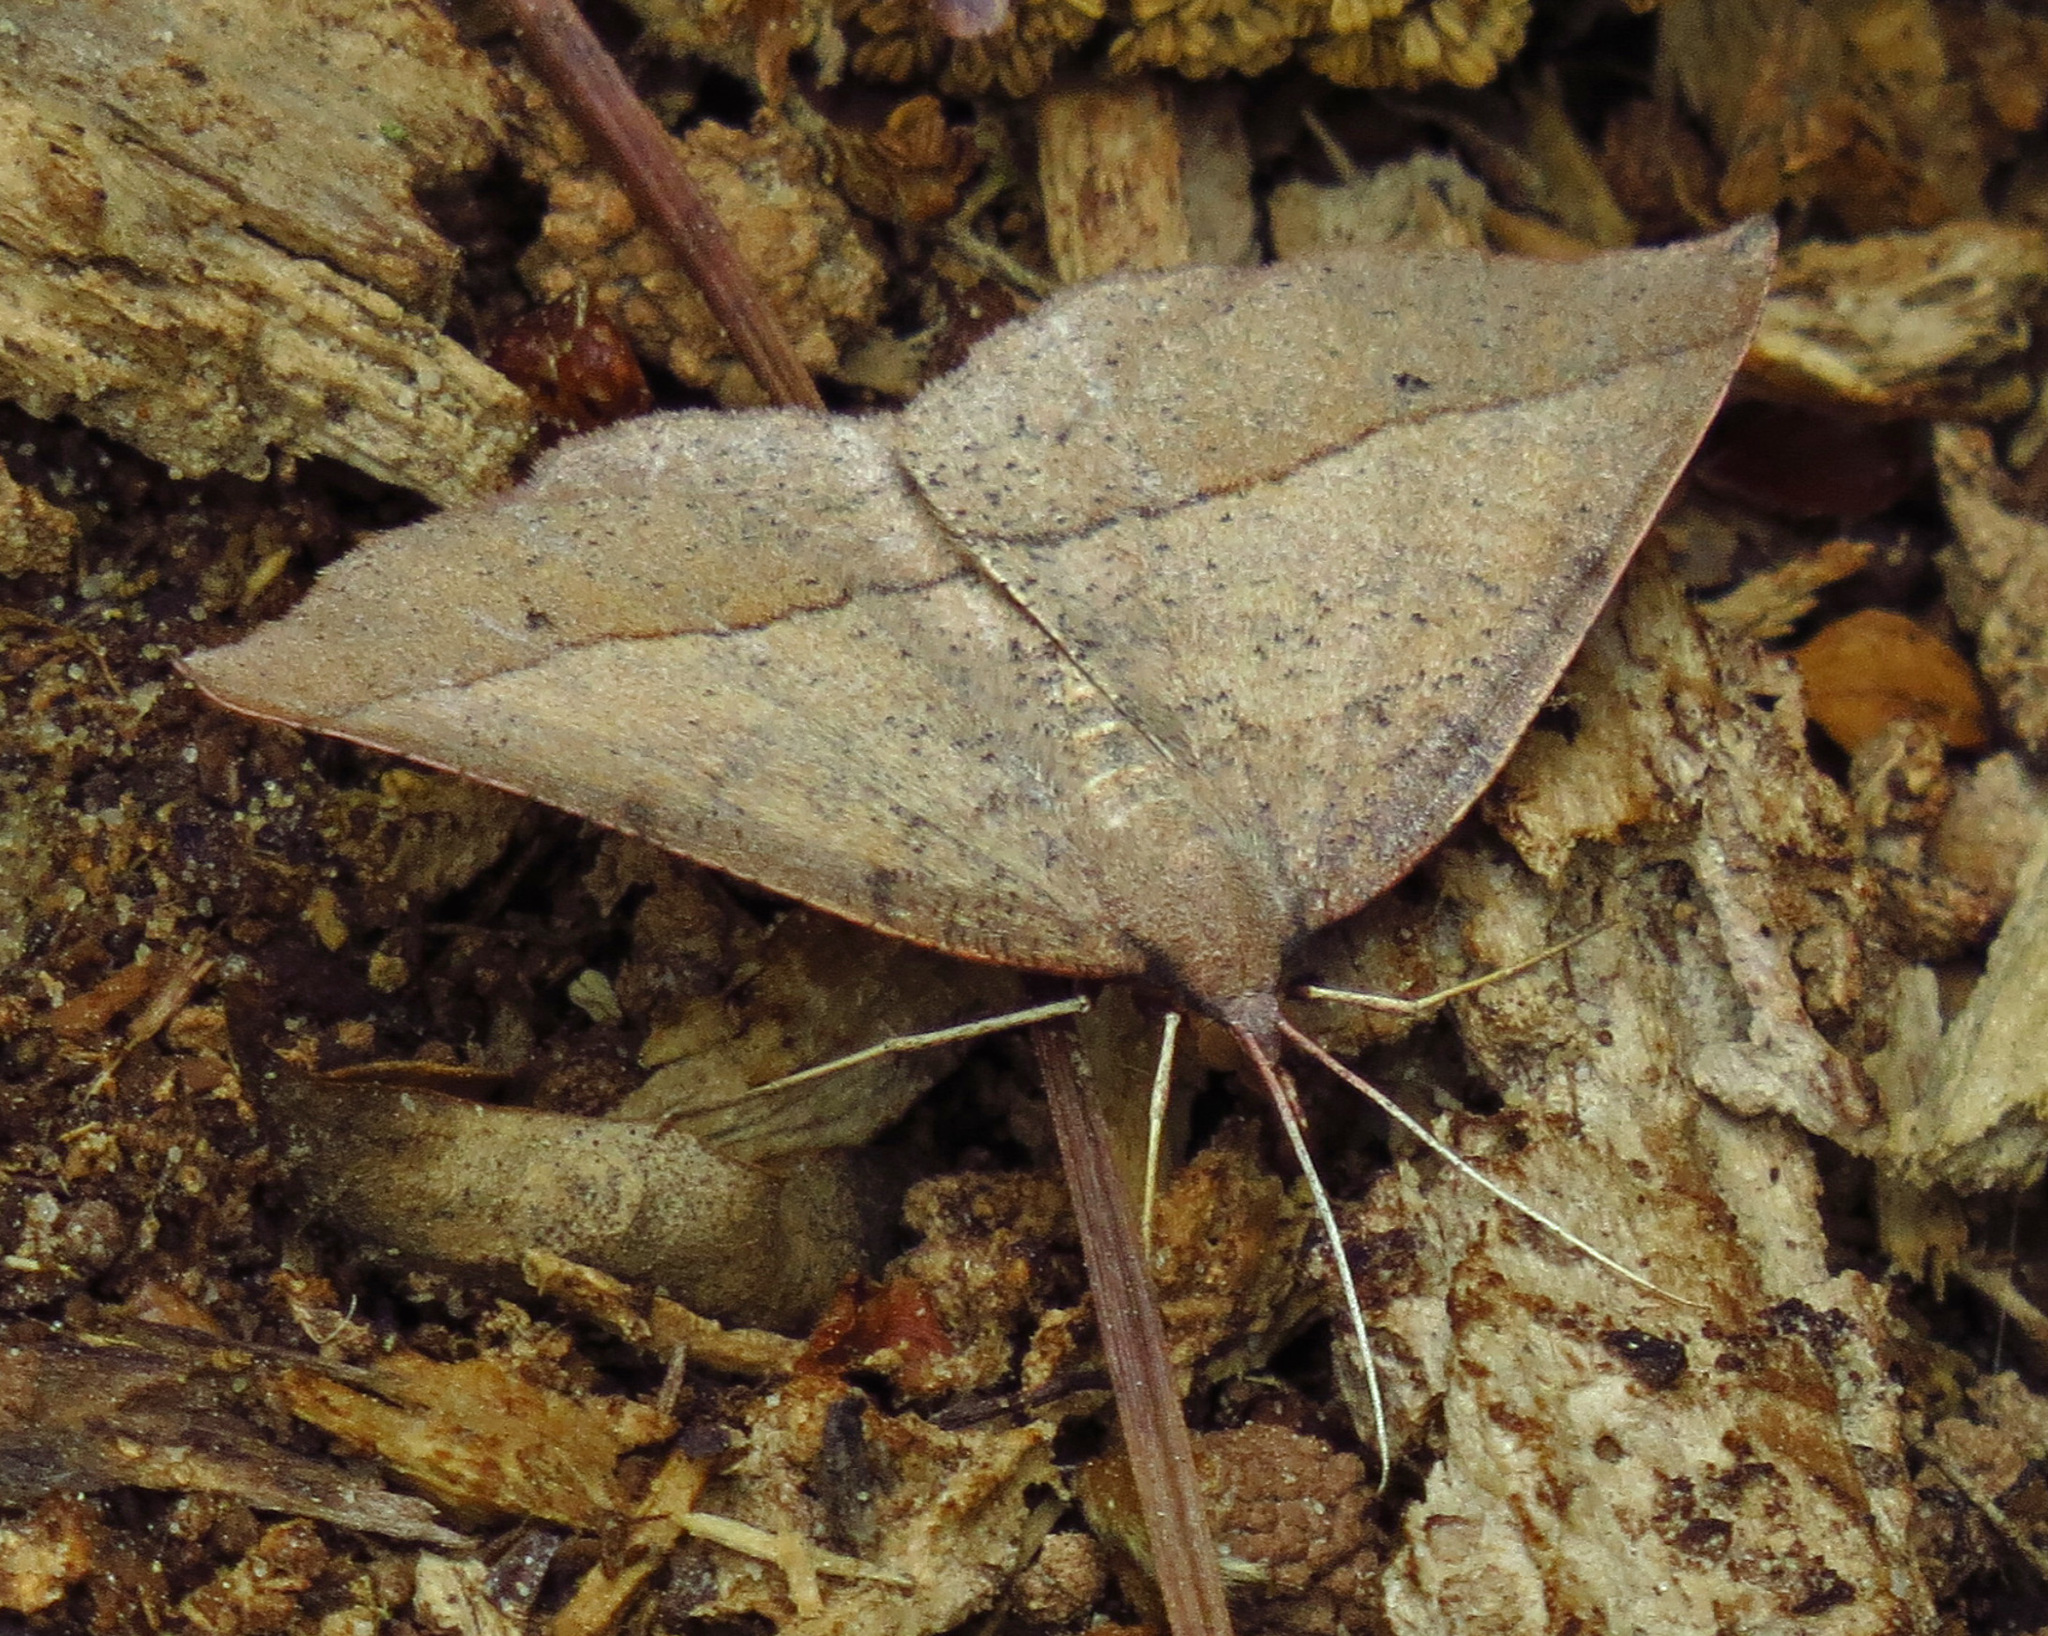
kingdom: Animalia
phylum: Arthropoda
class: Insecta
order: Lepidoptera
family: Geometridae
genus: Erastria
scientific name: Erastria cruentaria
